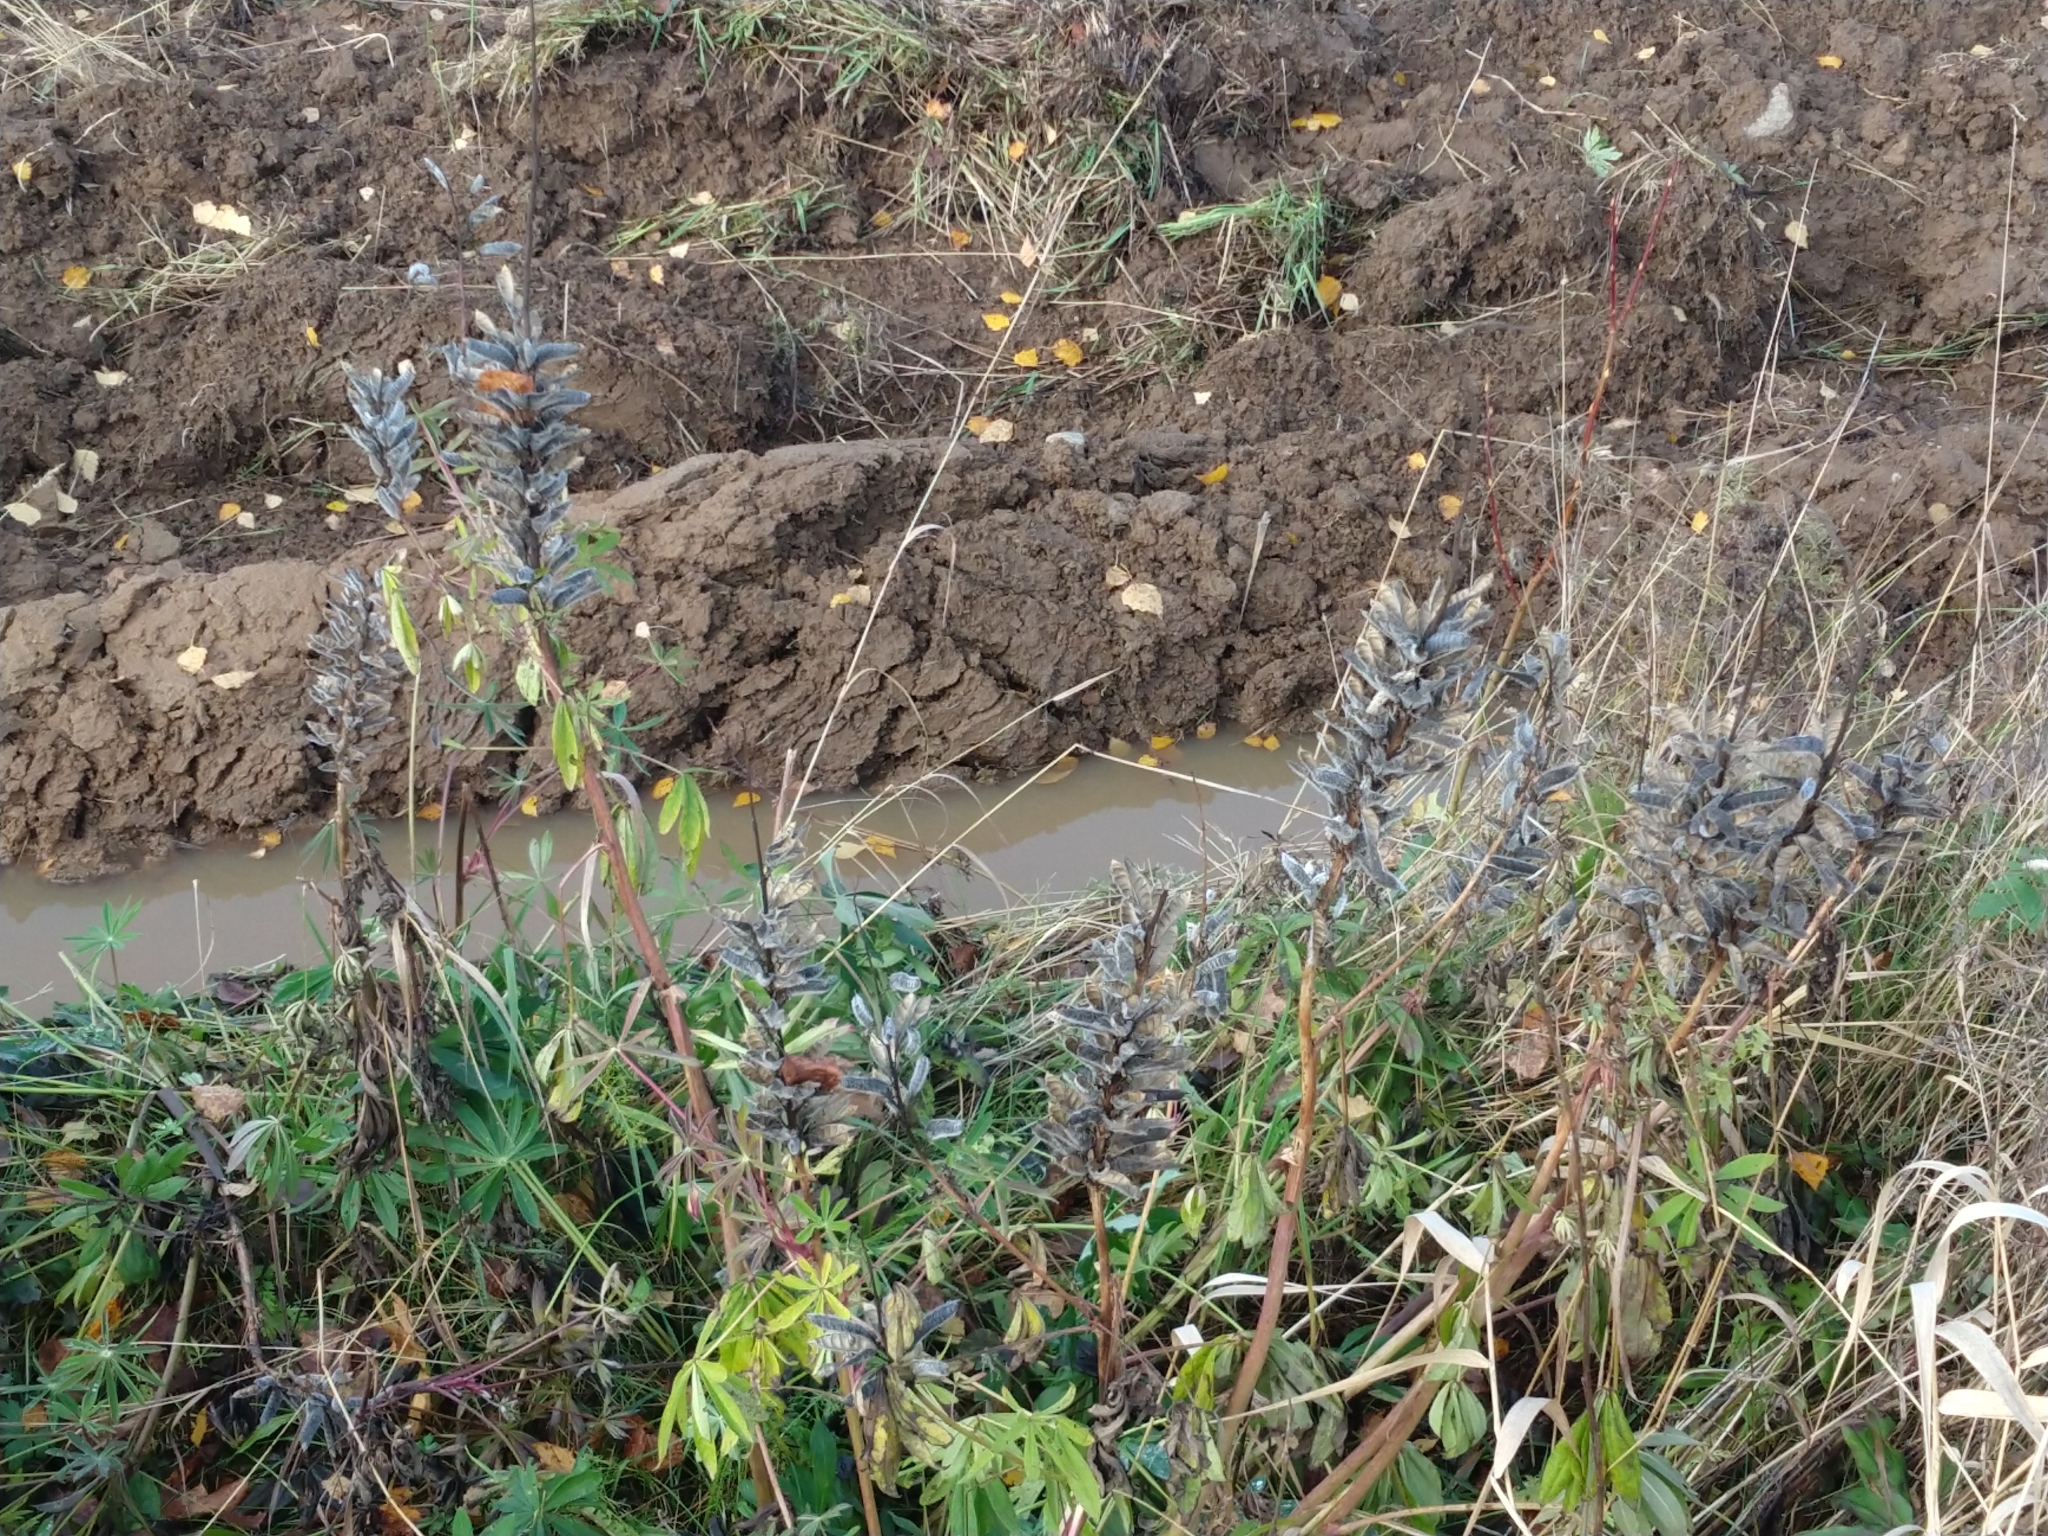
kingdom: Plantae
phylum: Tracheophyta
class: Magnoliopsida
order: Fabales
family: Fabaceae
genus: Lupinus
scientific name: Lupinus polyphyllus
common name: Garden lupin
